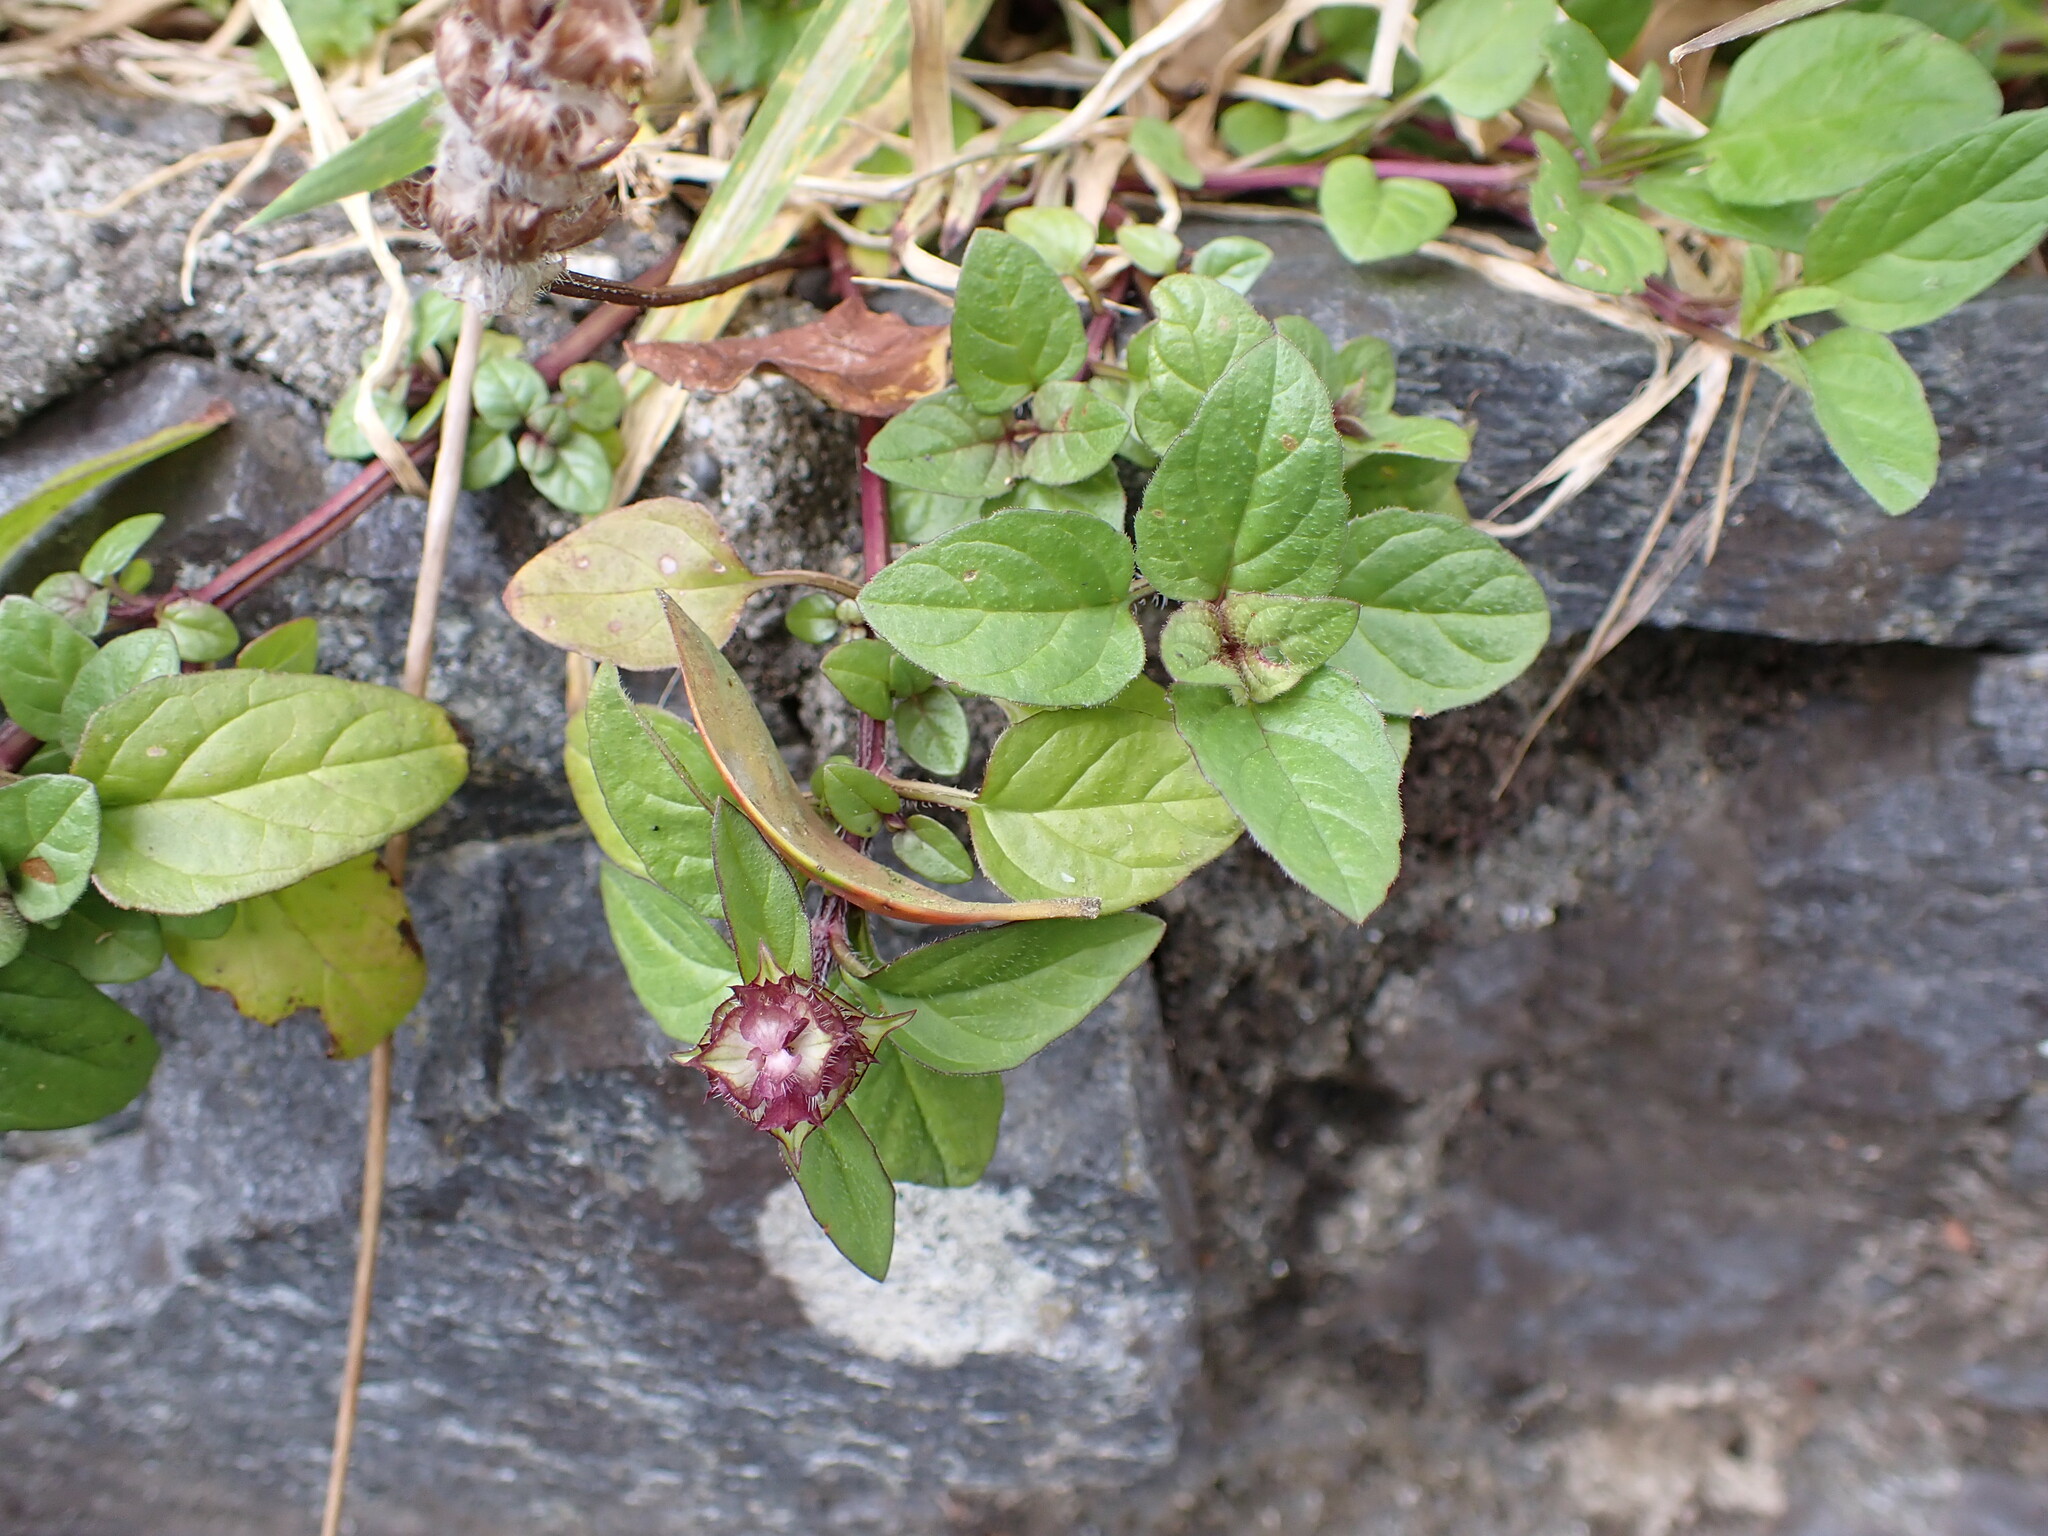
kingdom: Plantae
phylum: Tracheophyta
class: Magnoliopsida
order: Lamiales
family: Lamiaceae
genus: Prunella
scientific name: Prunella vulgaris
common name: Heal-all
